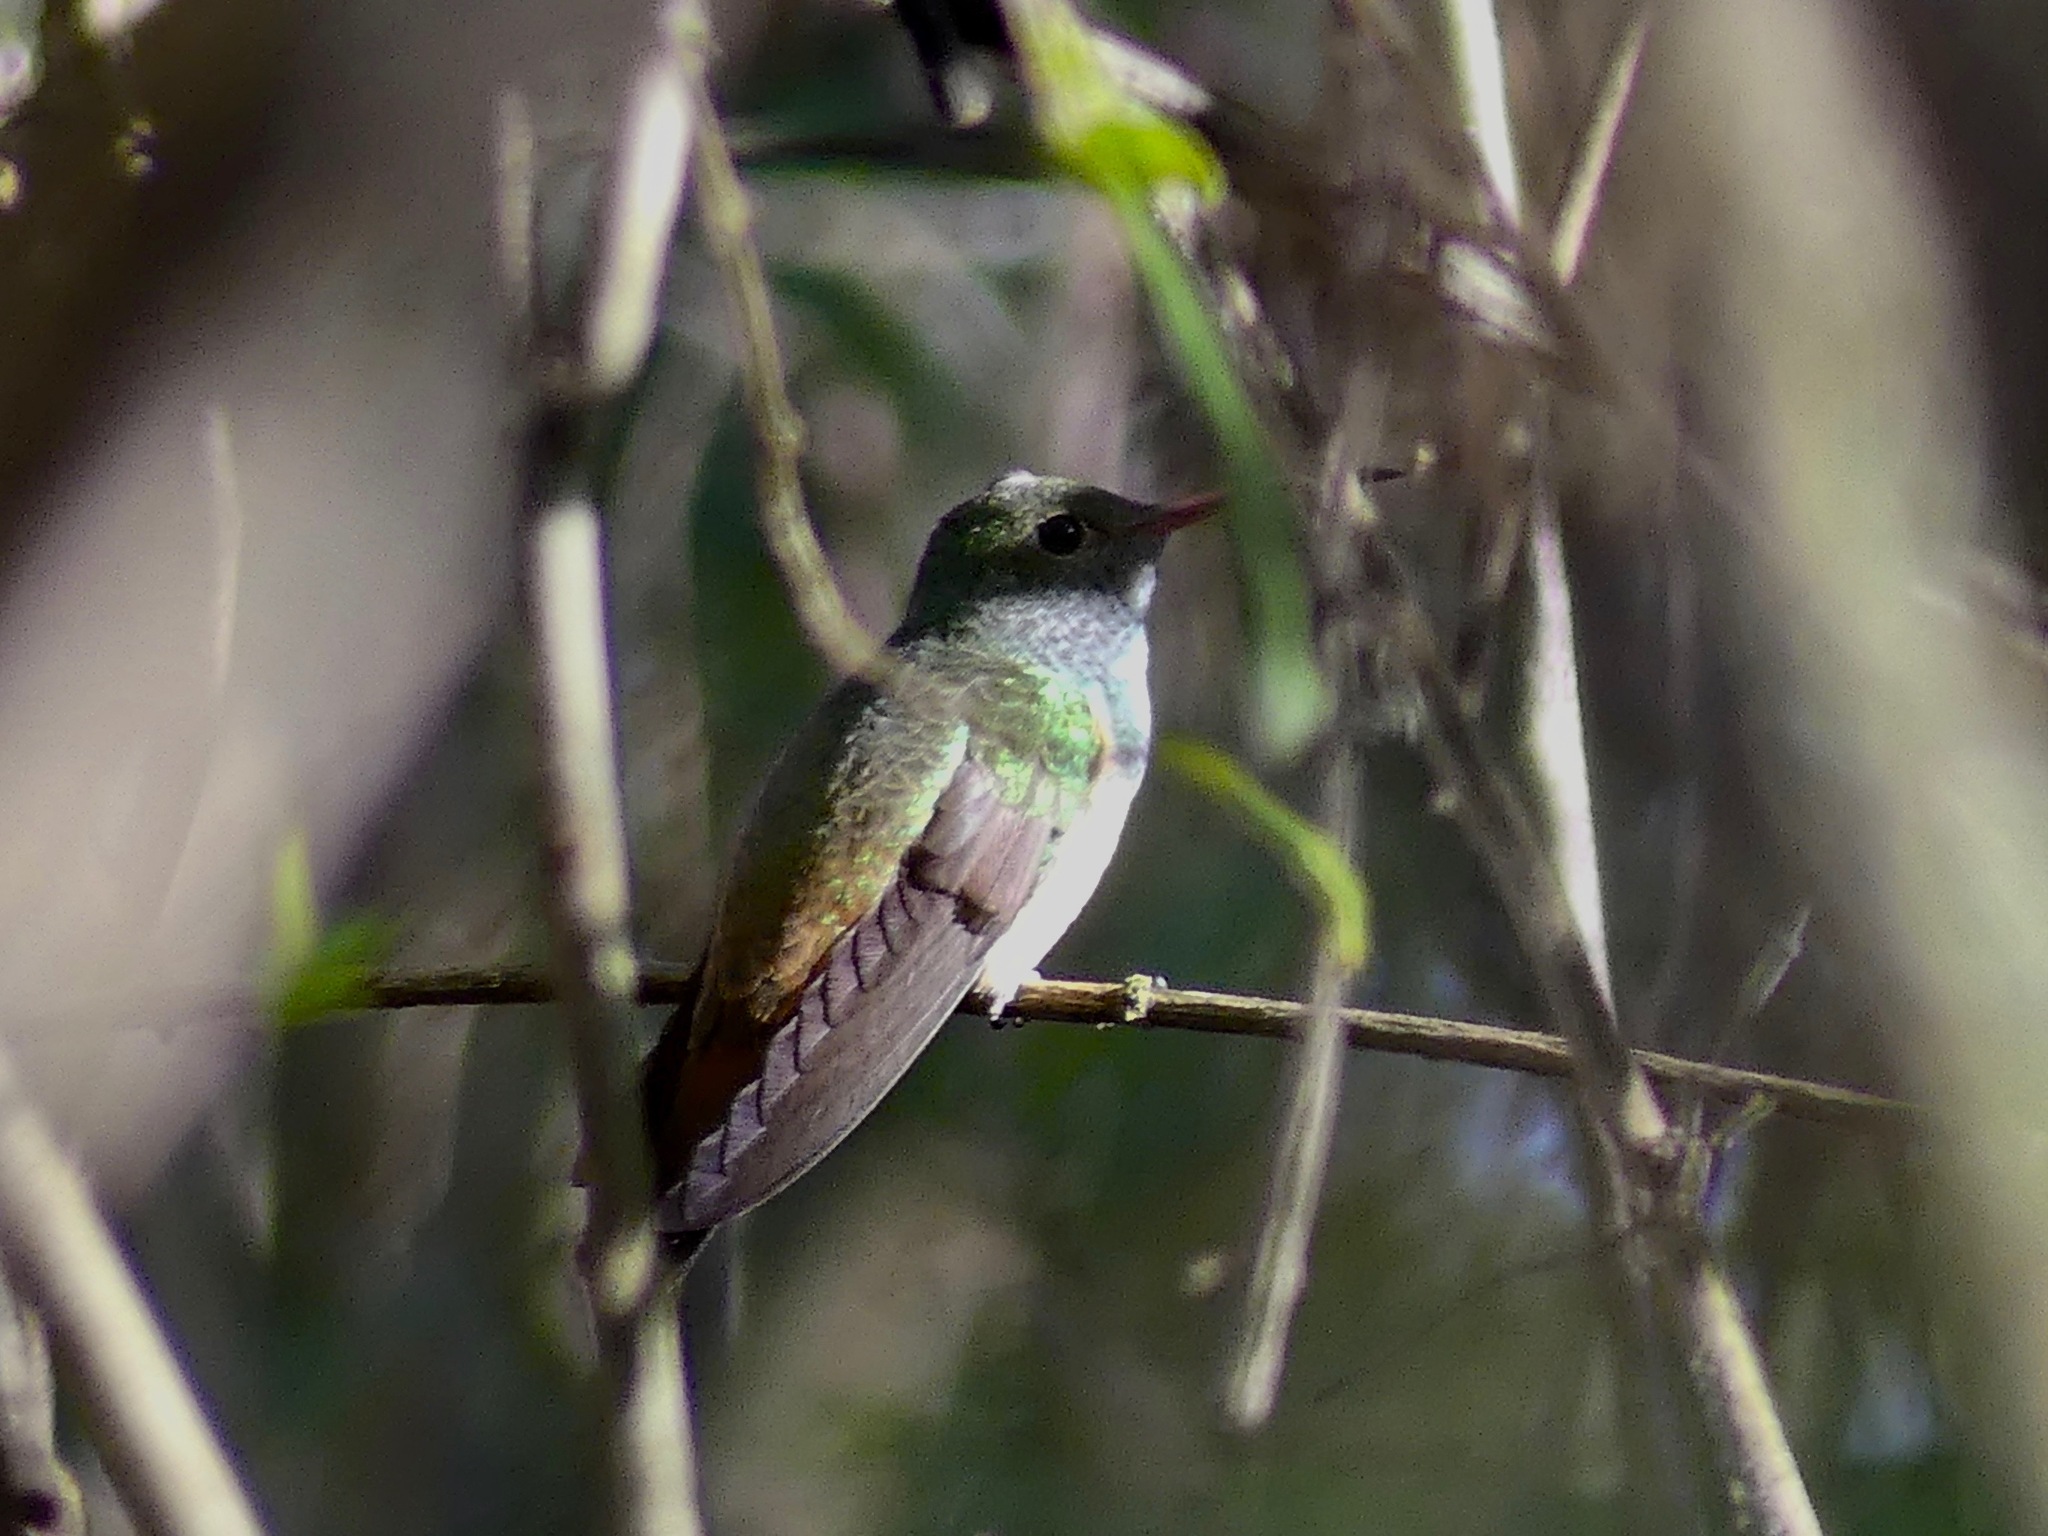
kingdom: Animalia
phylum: Chordata
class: Aves
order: Apodiformes
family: Trochilidae
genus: Amazilia
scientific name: Amazilia yucatanensis
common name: Buff-bellied hummingbird
